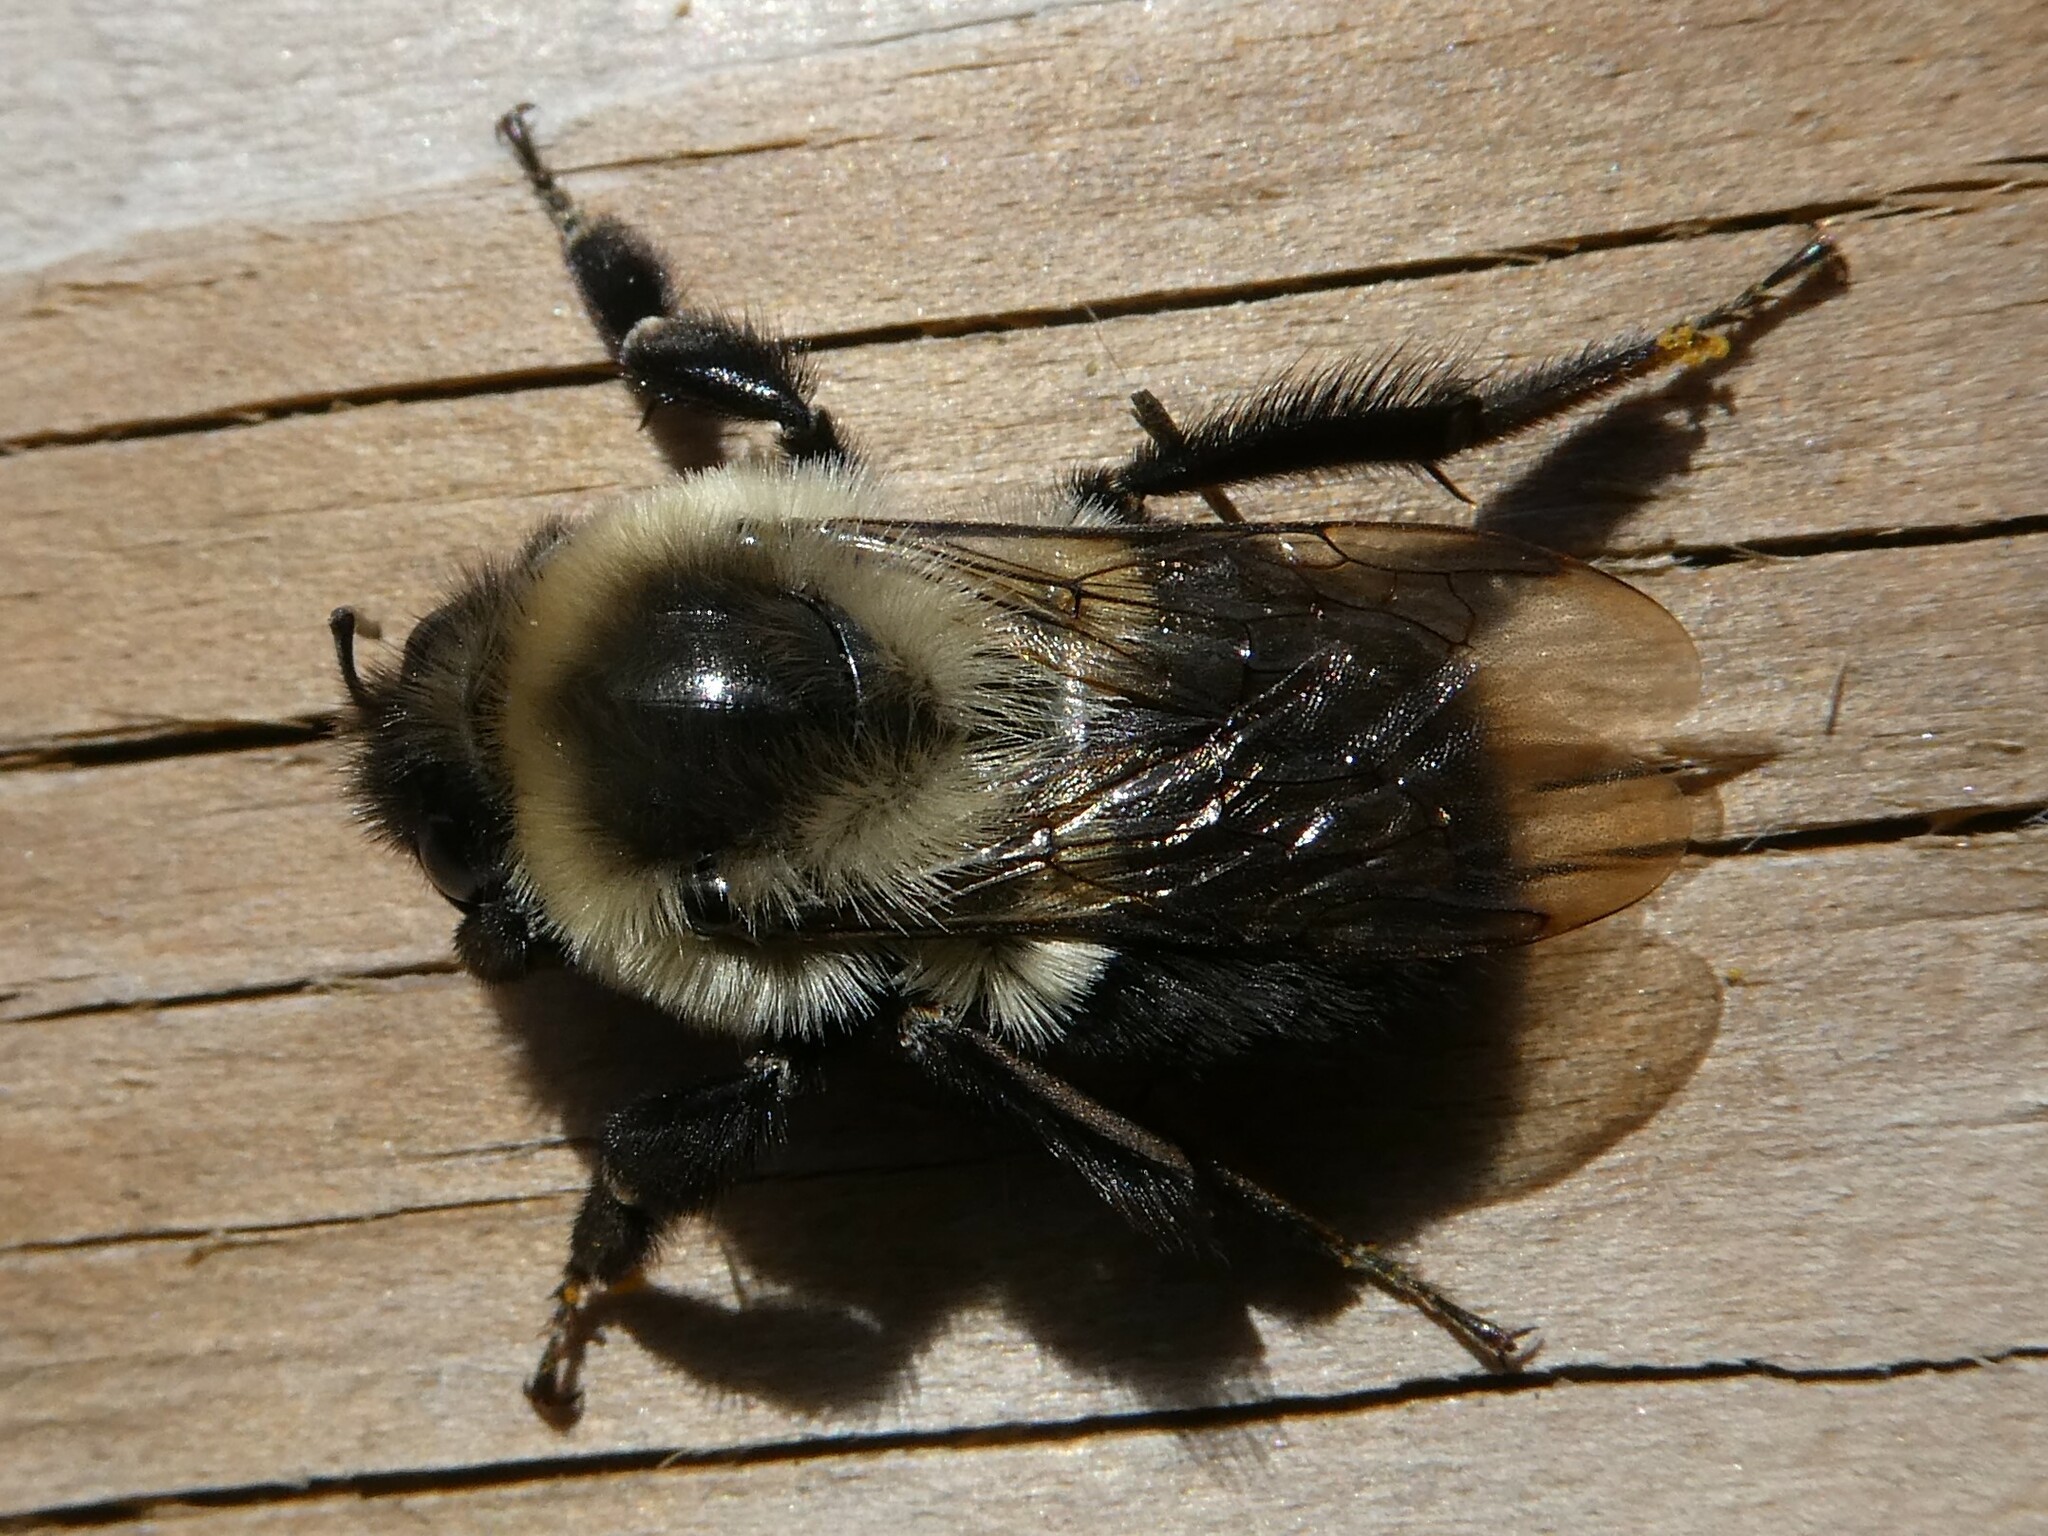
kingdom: Animalia
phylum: Arthropoda
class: Insecta
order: Hymenoptera
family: Apidae
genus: Bombus
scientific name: Bombus impatiens
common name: Common eastern bumble bee
